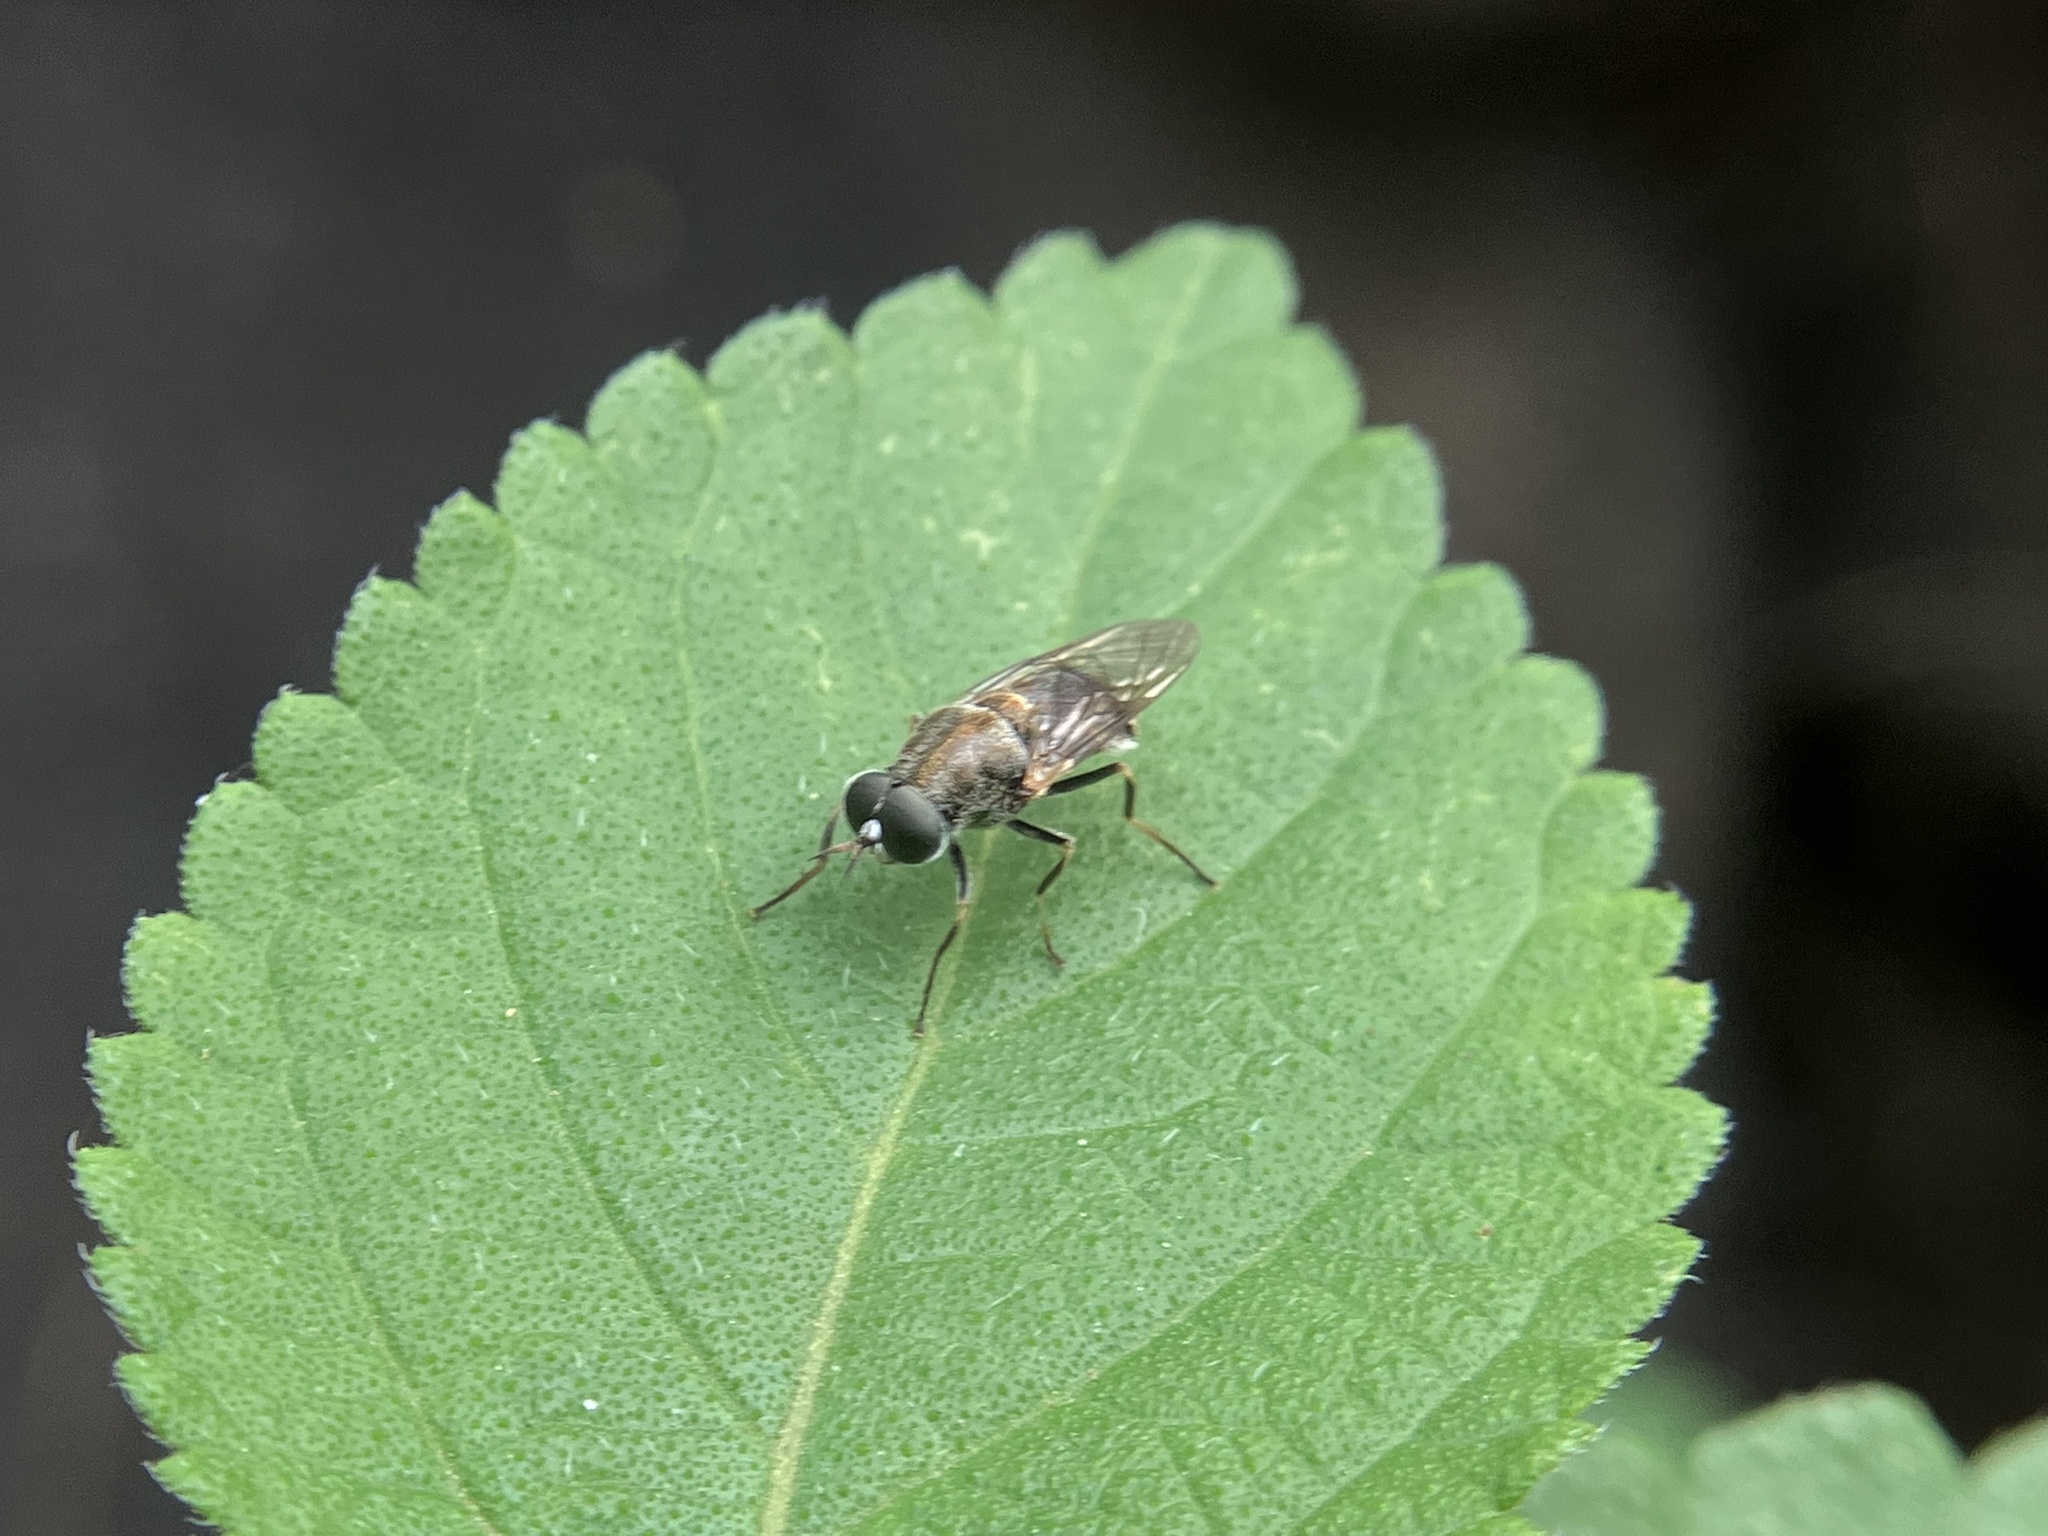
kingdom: Animalia
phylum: Arthropoda
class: Insecta
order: Diptera
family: Stratiomyidae
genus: Adoxomyia
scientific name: Adoxomyia heminopla
